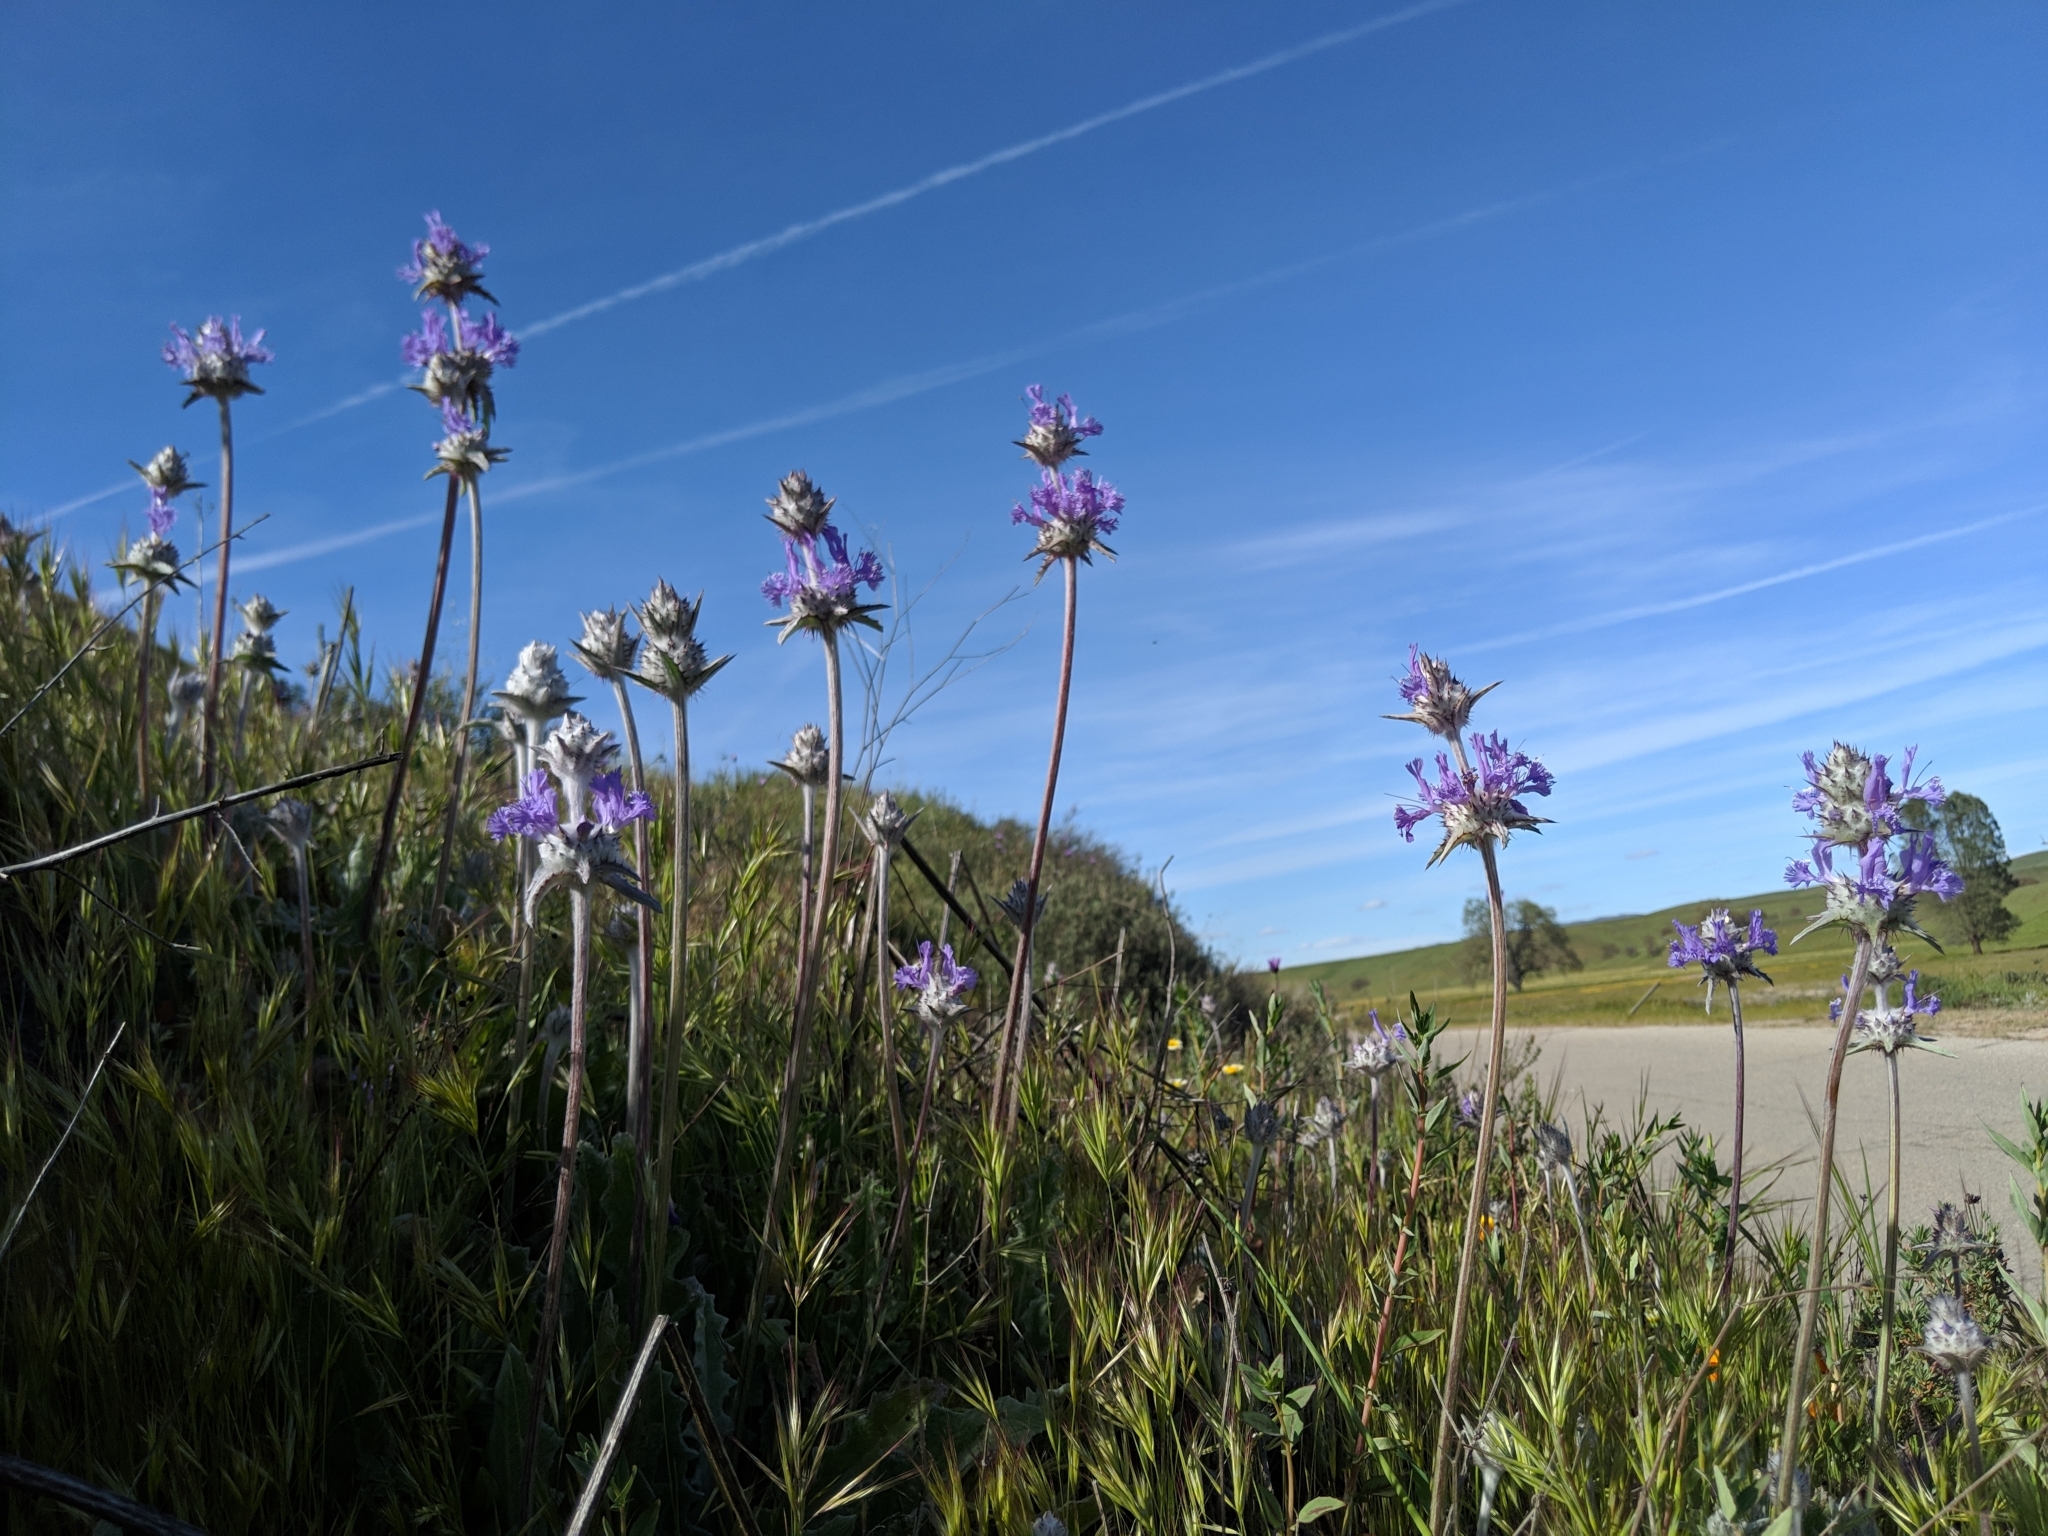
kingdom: Plantae
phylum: Tracheophyta
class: Magnoliopsida
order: Lamiales
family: Lamiaceae
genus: Salvia
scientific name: Salvia carduacea
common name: Thistle sage
